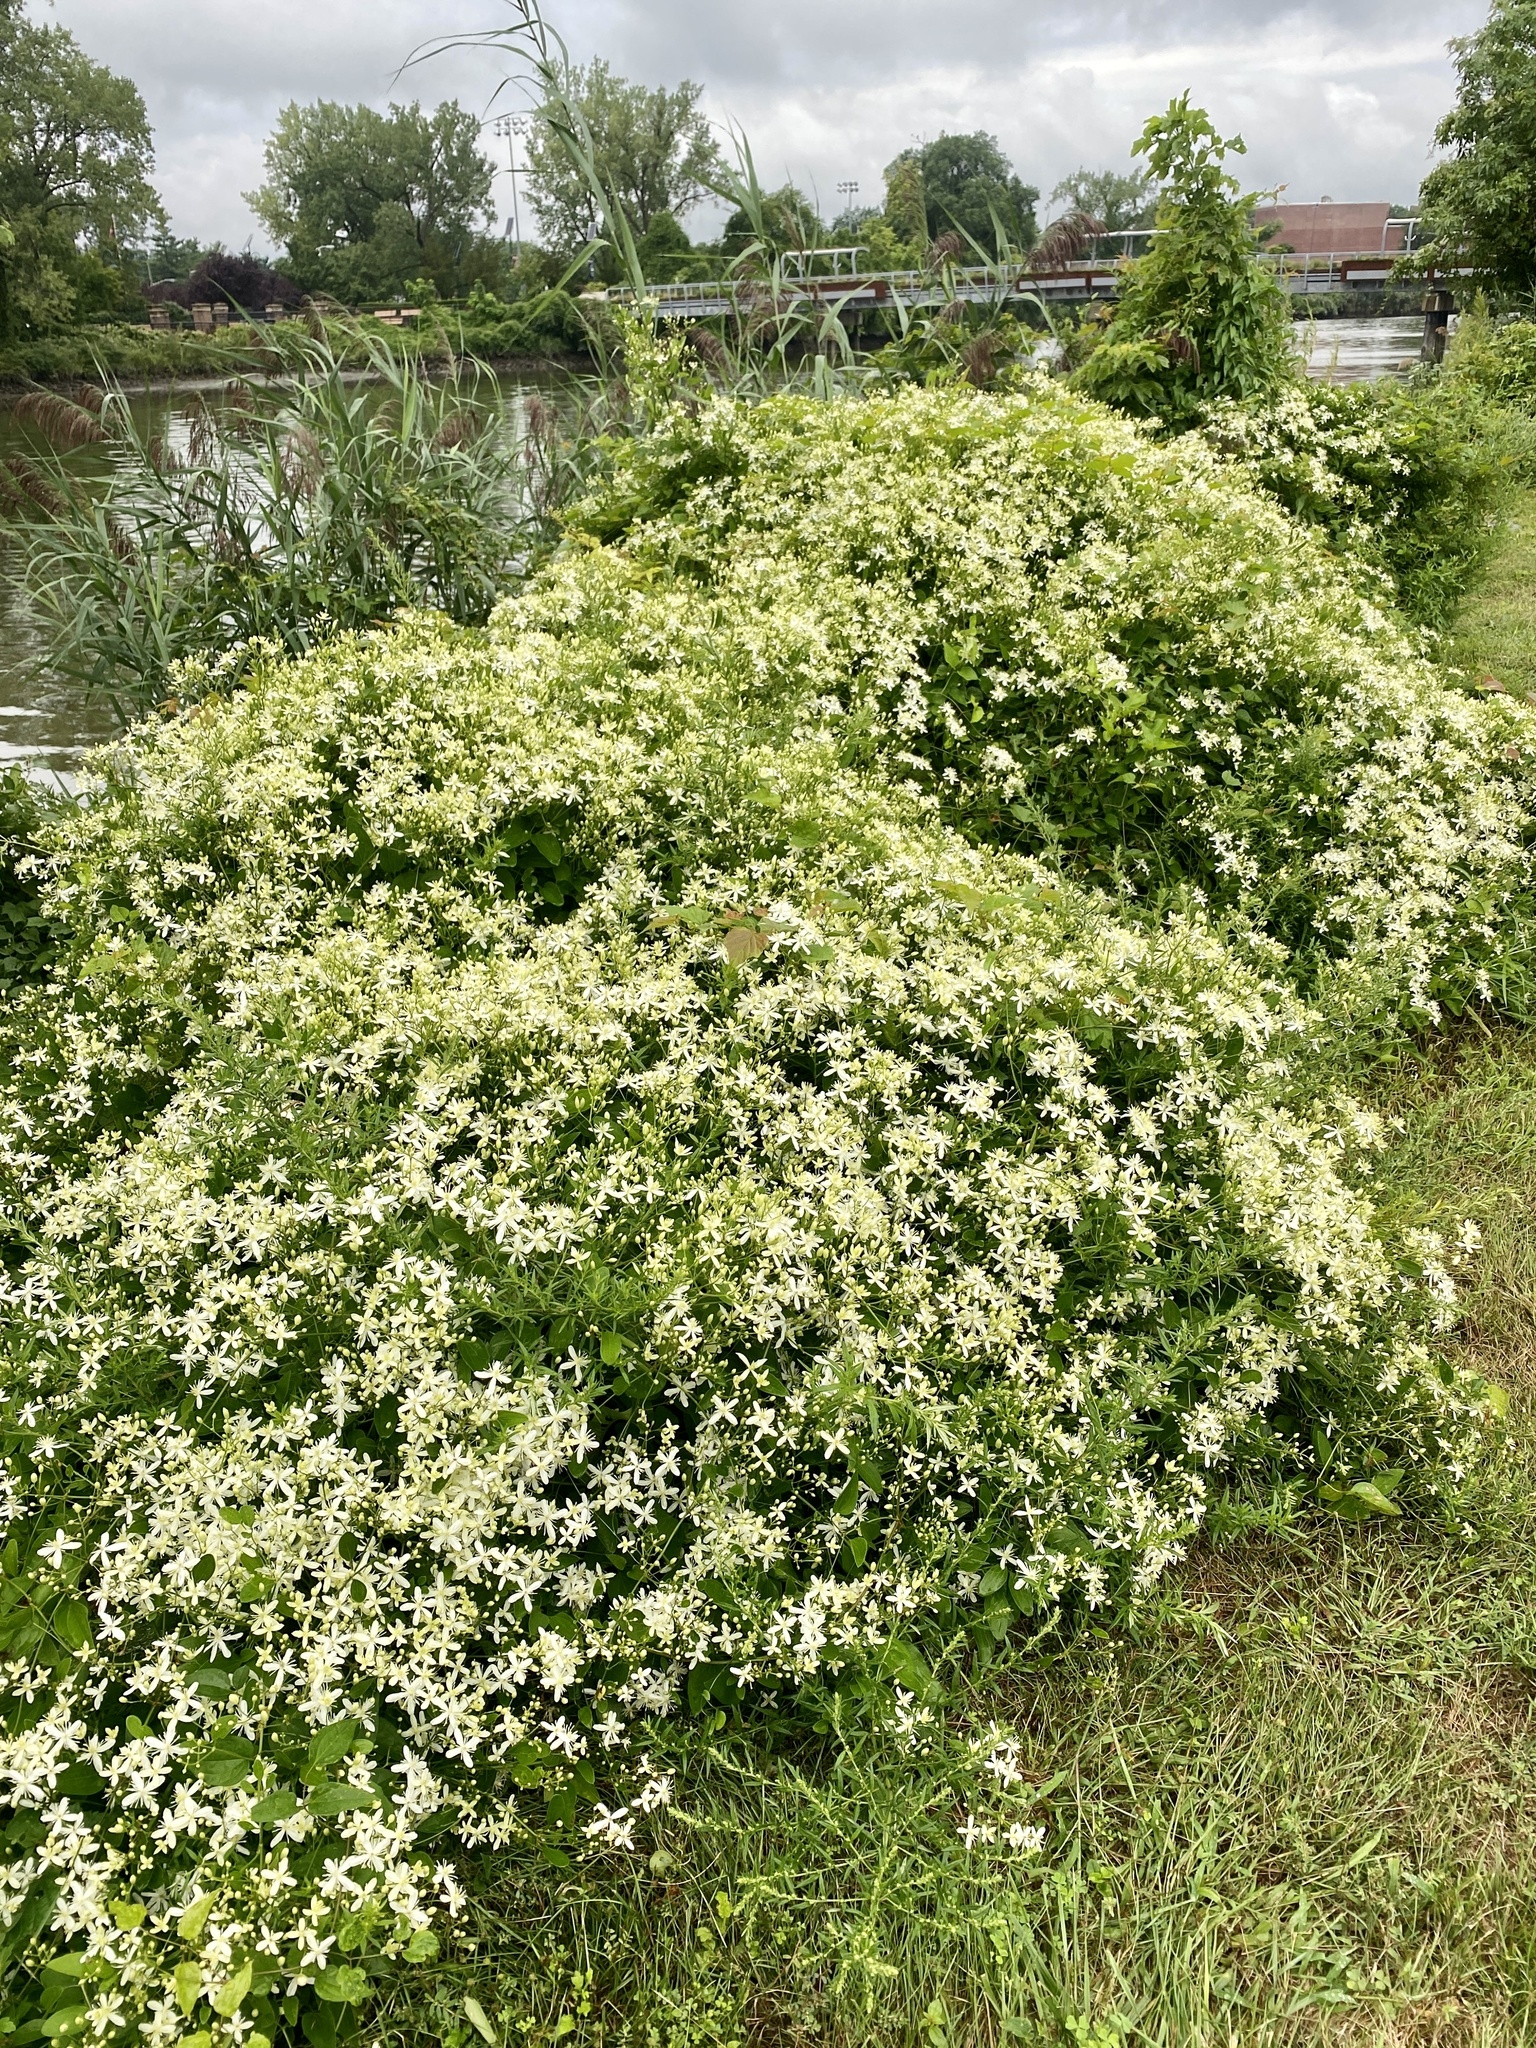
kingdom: Plantae
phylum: Tracheophyta
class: Magnoliopsida
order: Ranunculales
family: Ranunculaceae
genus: Clematis
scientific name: Clematis terniflora
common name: Sweet autumn clematis
